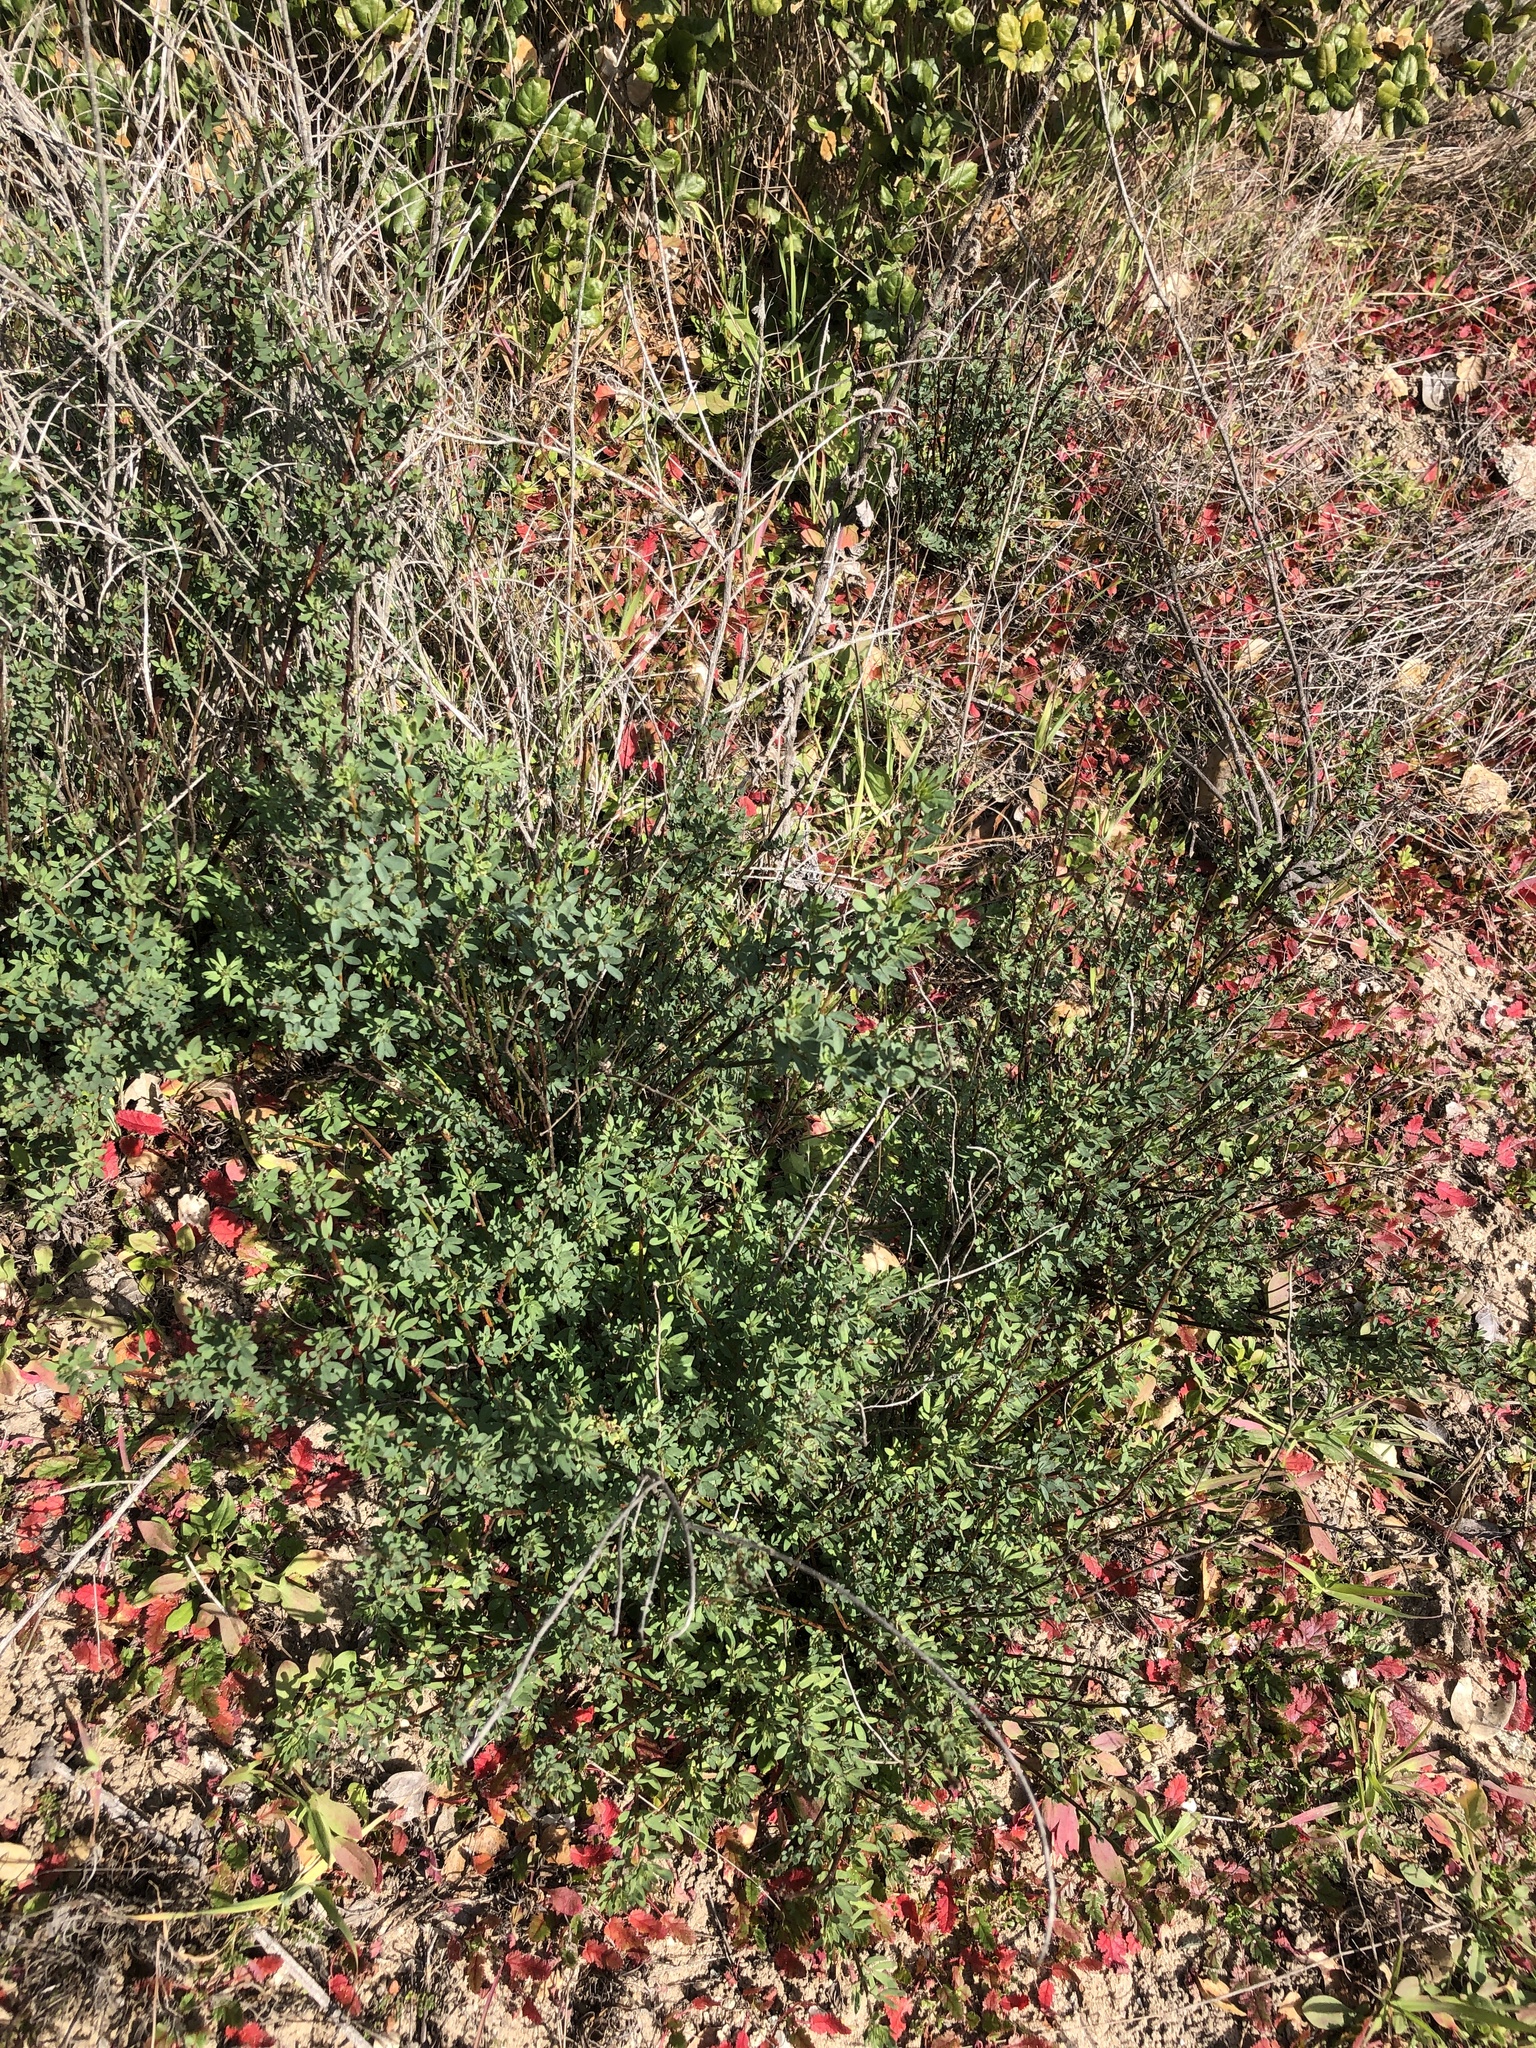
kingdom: Plantae
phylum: Tracheophyta
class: Magnoliopsida
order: Fabales
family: Fabaceae
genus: Acmispon
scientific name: Acmispon glaber
